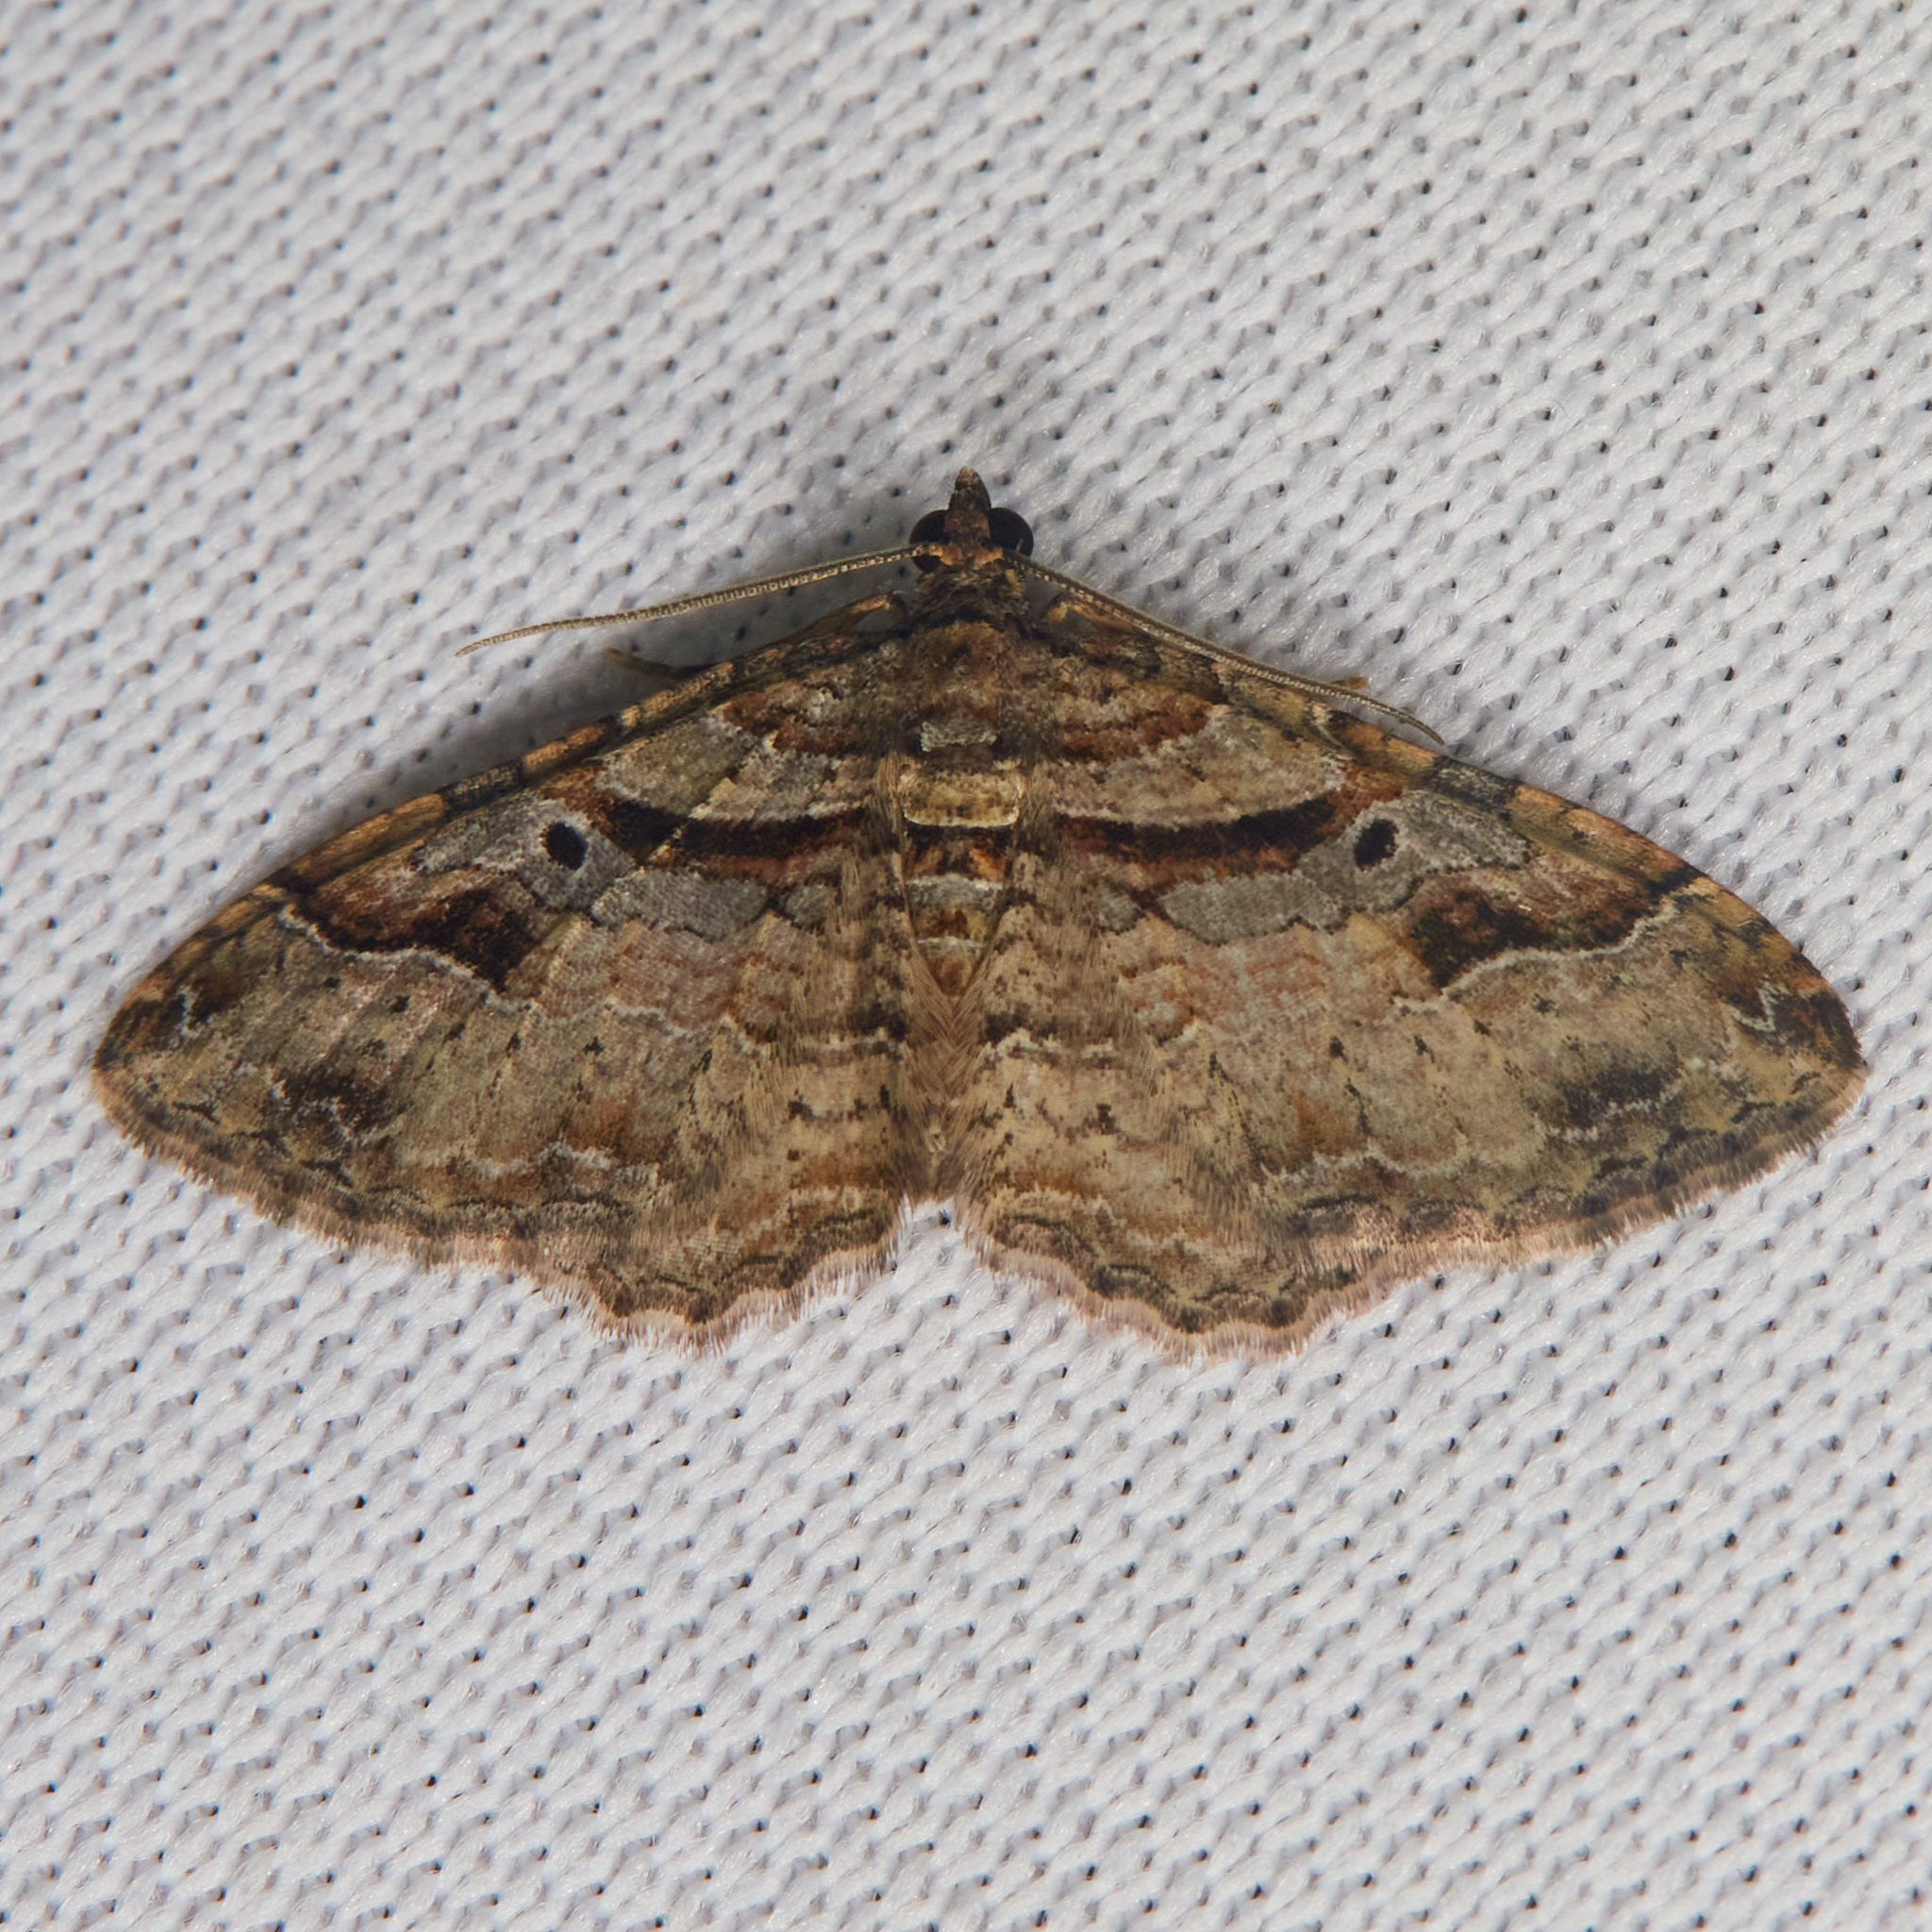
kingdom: Animalia
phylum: Arthropoda
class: Insecta
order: Lepidoptera
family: Geometridae
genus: Costaconvexa
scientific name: Costaconvexa centrostrigaria
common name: Bent-line carpet
